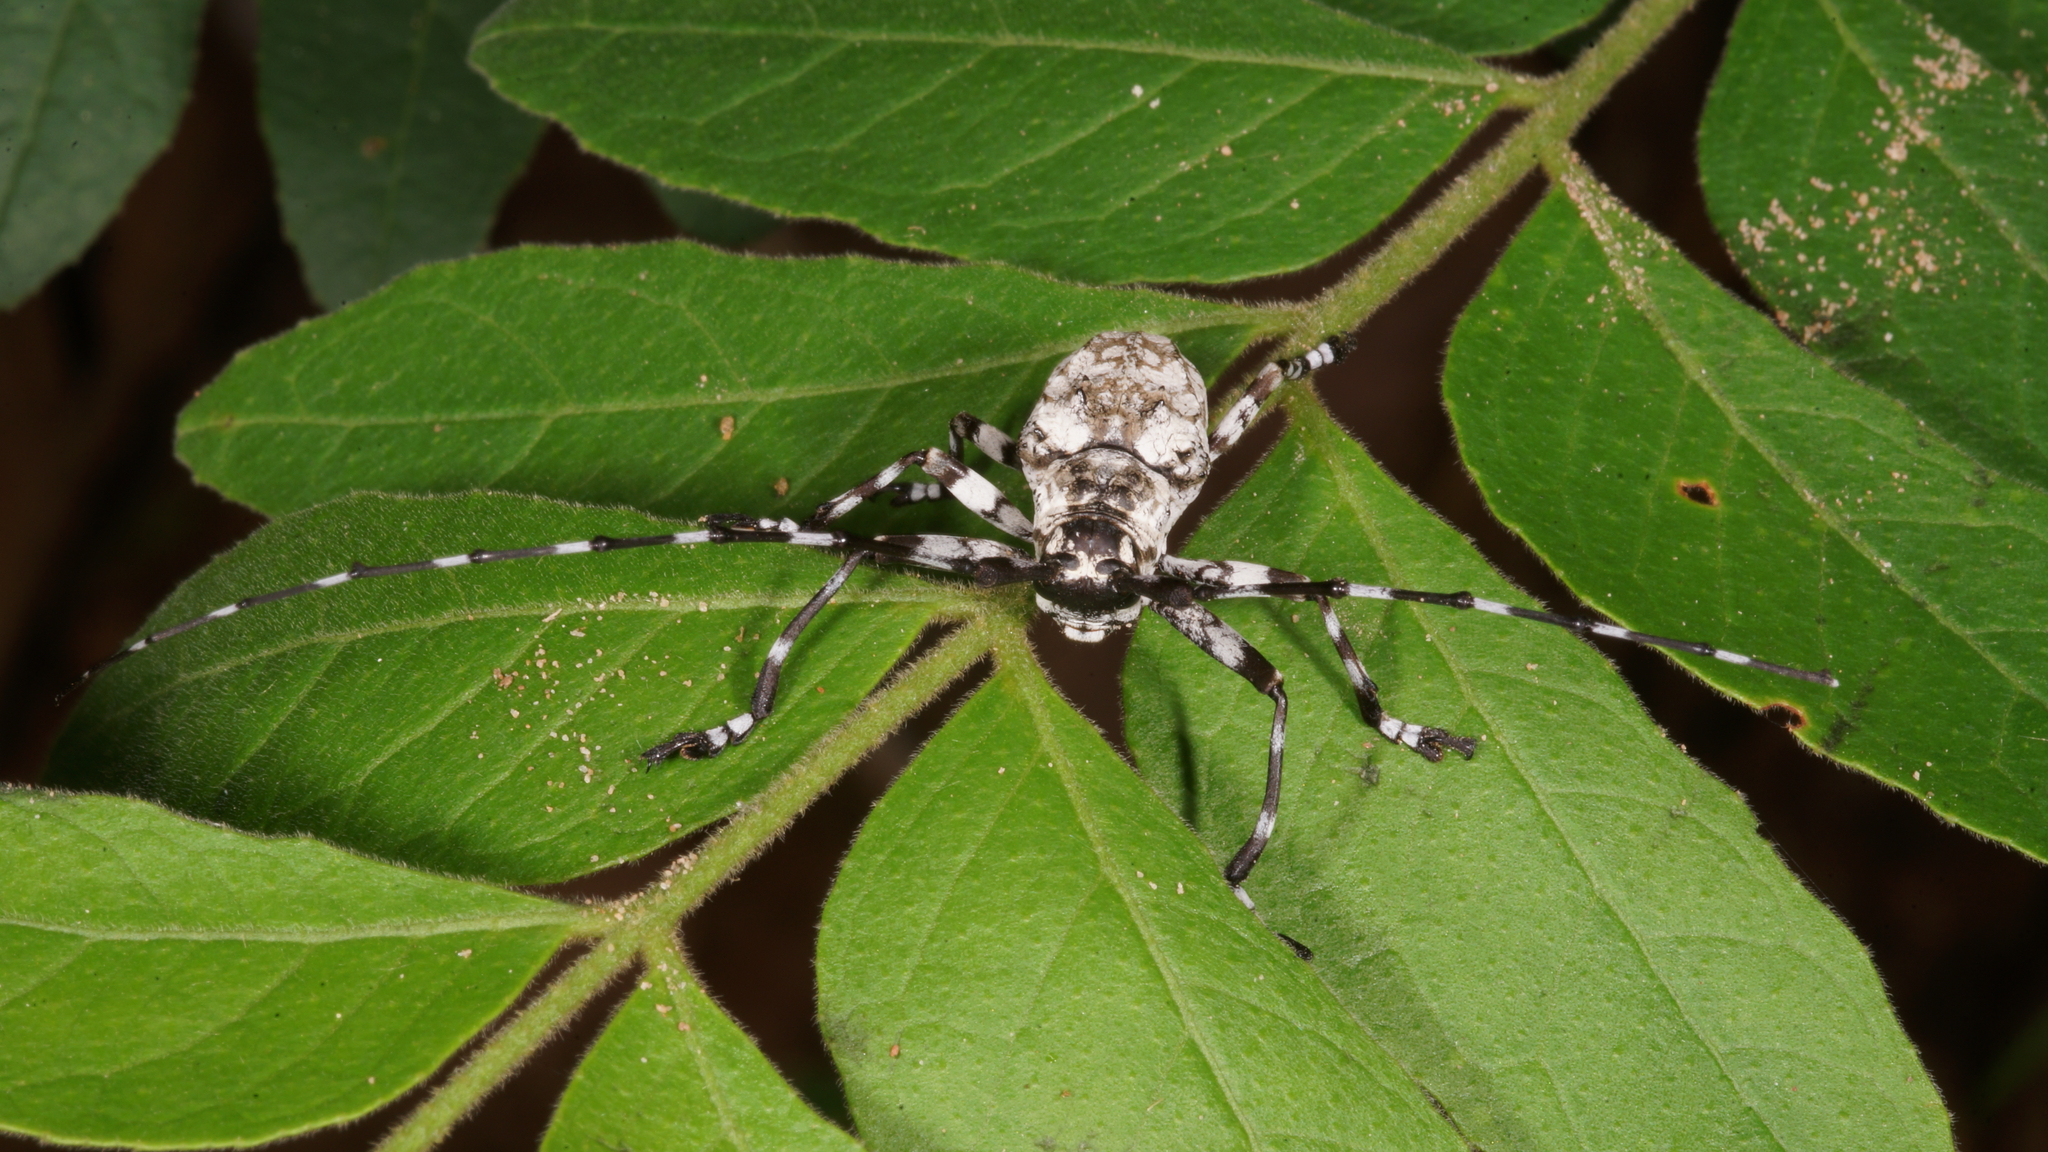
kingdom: Animalia
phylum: Arthropoda
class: Insecta
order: Coleoptera
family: Cerambycidae
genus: Palimna
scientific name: Palimna annulata
